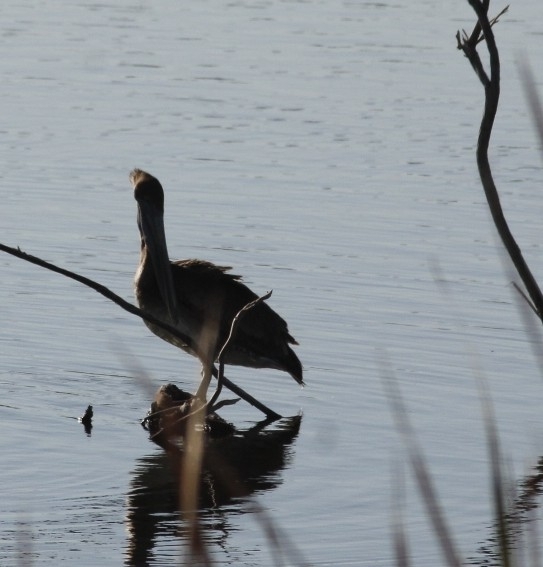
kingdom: Animalia
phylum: Chordata
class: Aves
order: Pelecaniformes
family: Pelecanidae
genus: Pelecanus
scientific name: Pelecanus occidentalis
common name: Brown pelican
